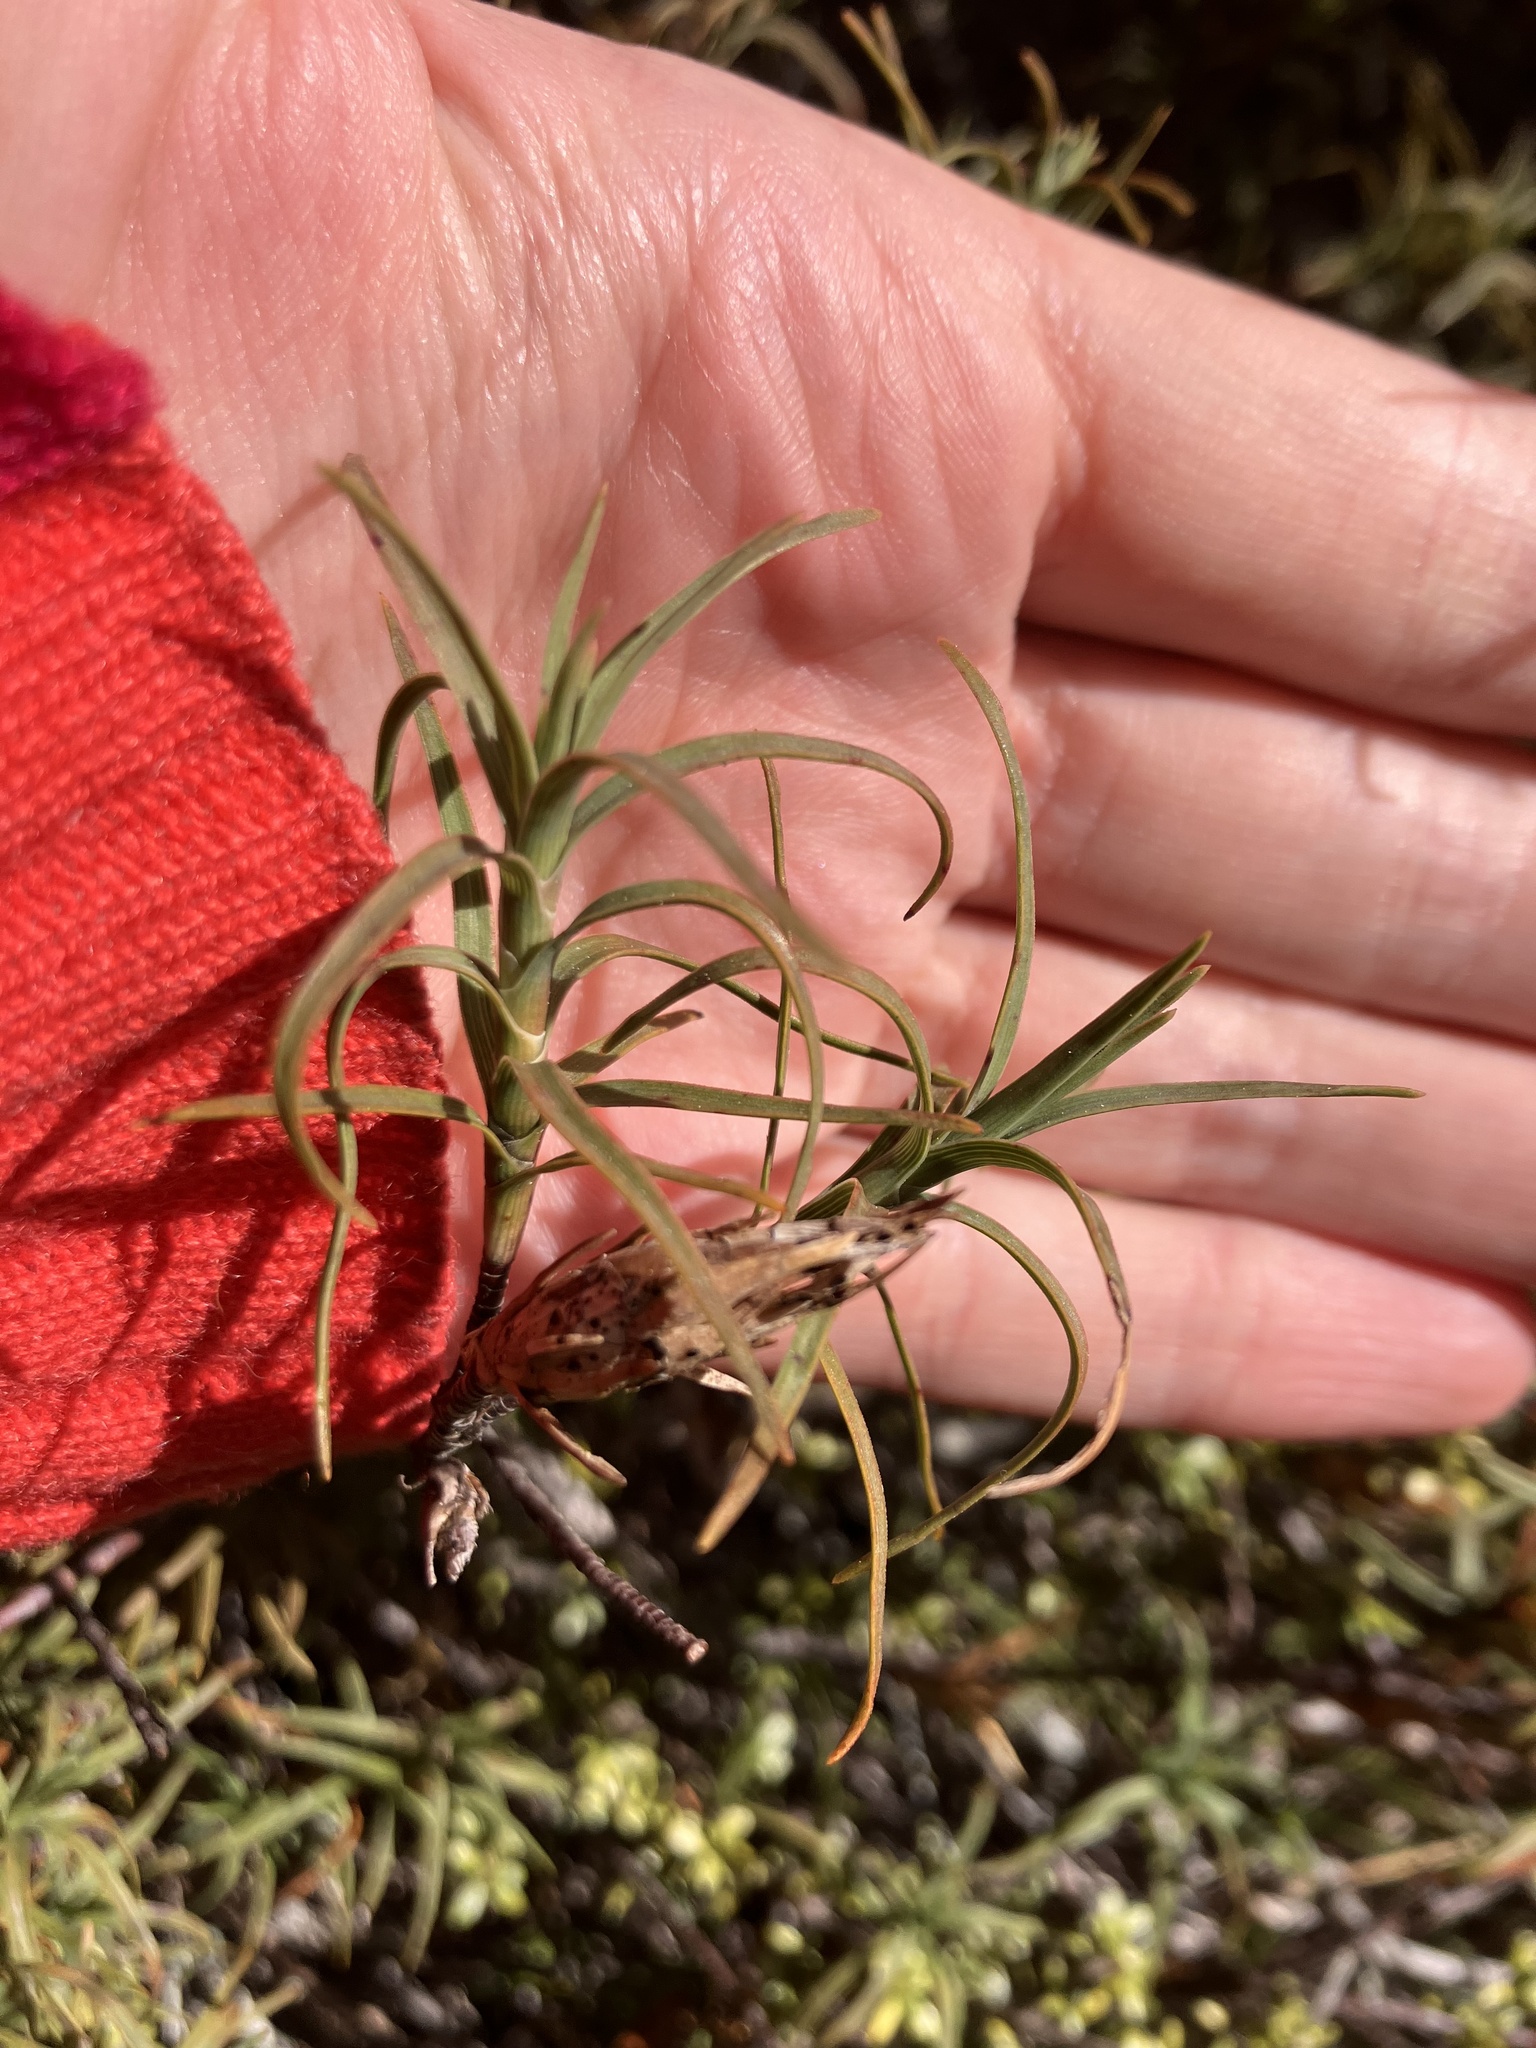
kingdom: Plantae
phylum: Tracheophyta
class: Magnoliopsida
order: Ericales
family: Ericaceae
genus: Dracophyllum
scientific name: Dracophyllum recurvum
